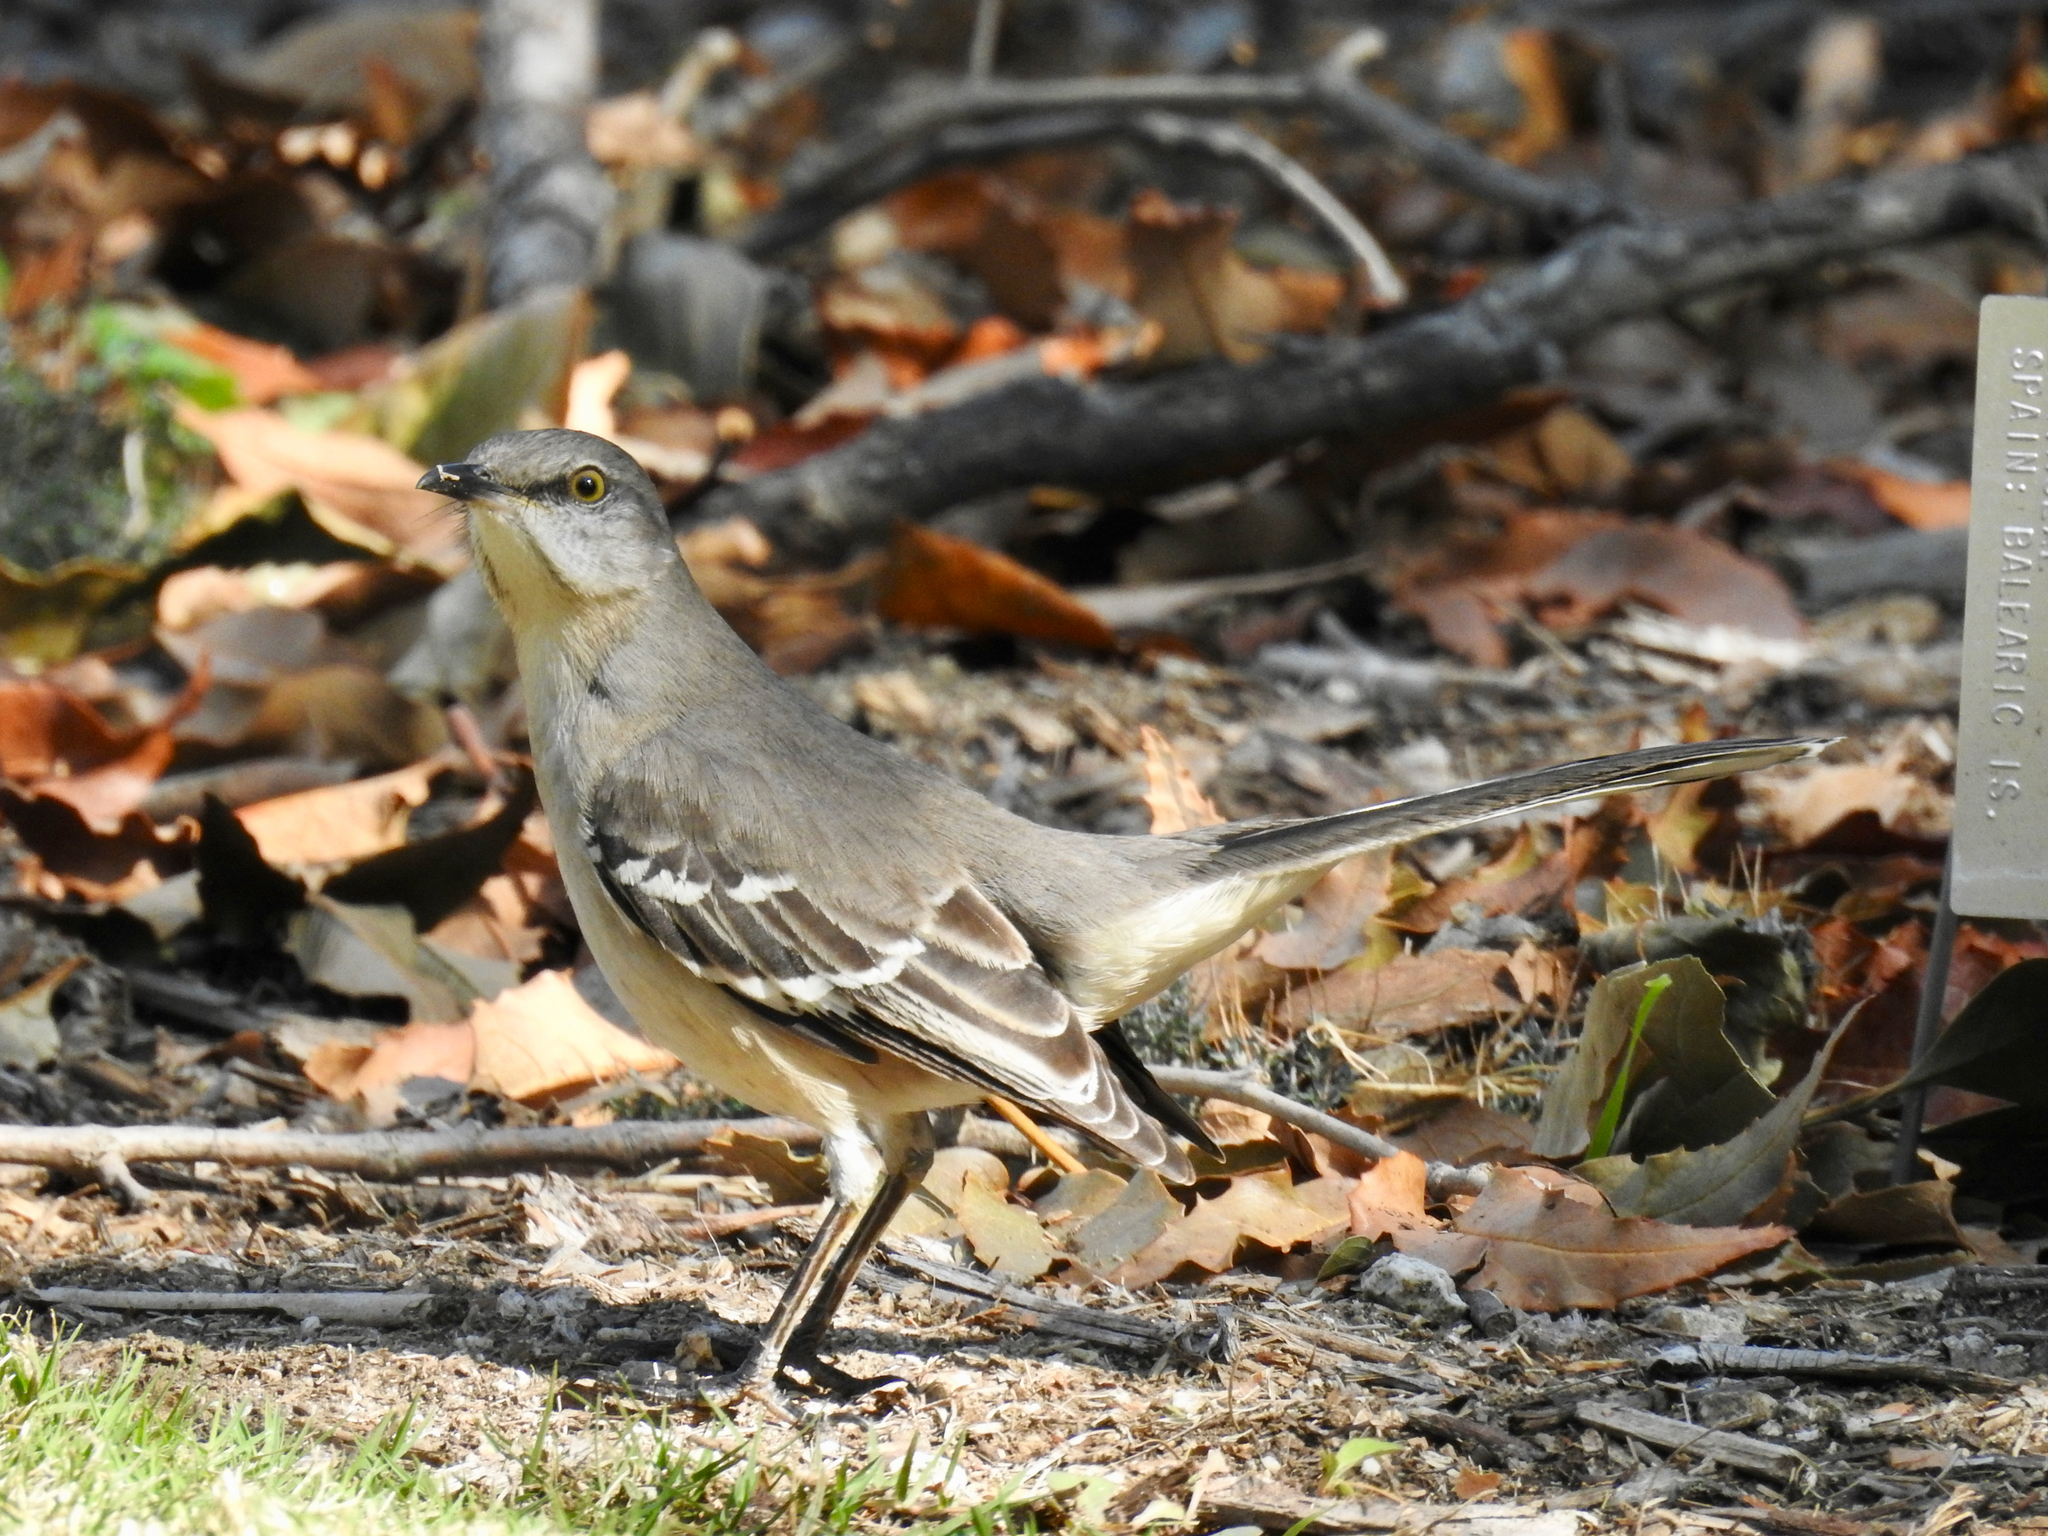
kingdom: Animalia
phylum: Chordata
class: Aves
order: Passeriformes
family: Mimidae
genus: Mimus
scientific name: Mimus polyglottos
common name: Northern mockingbird
